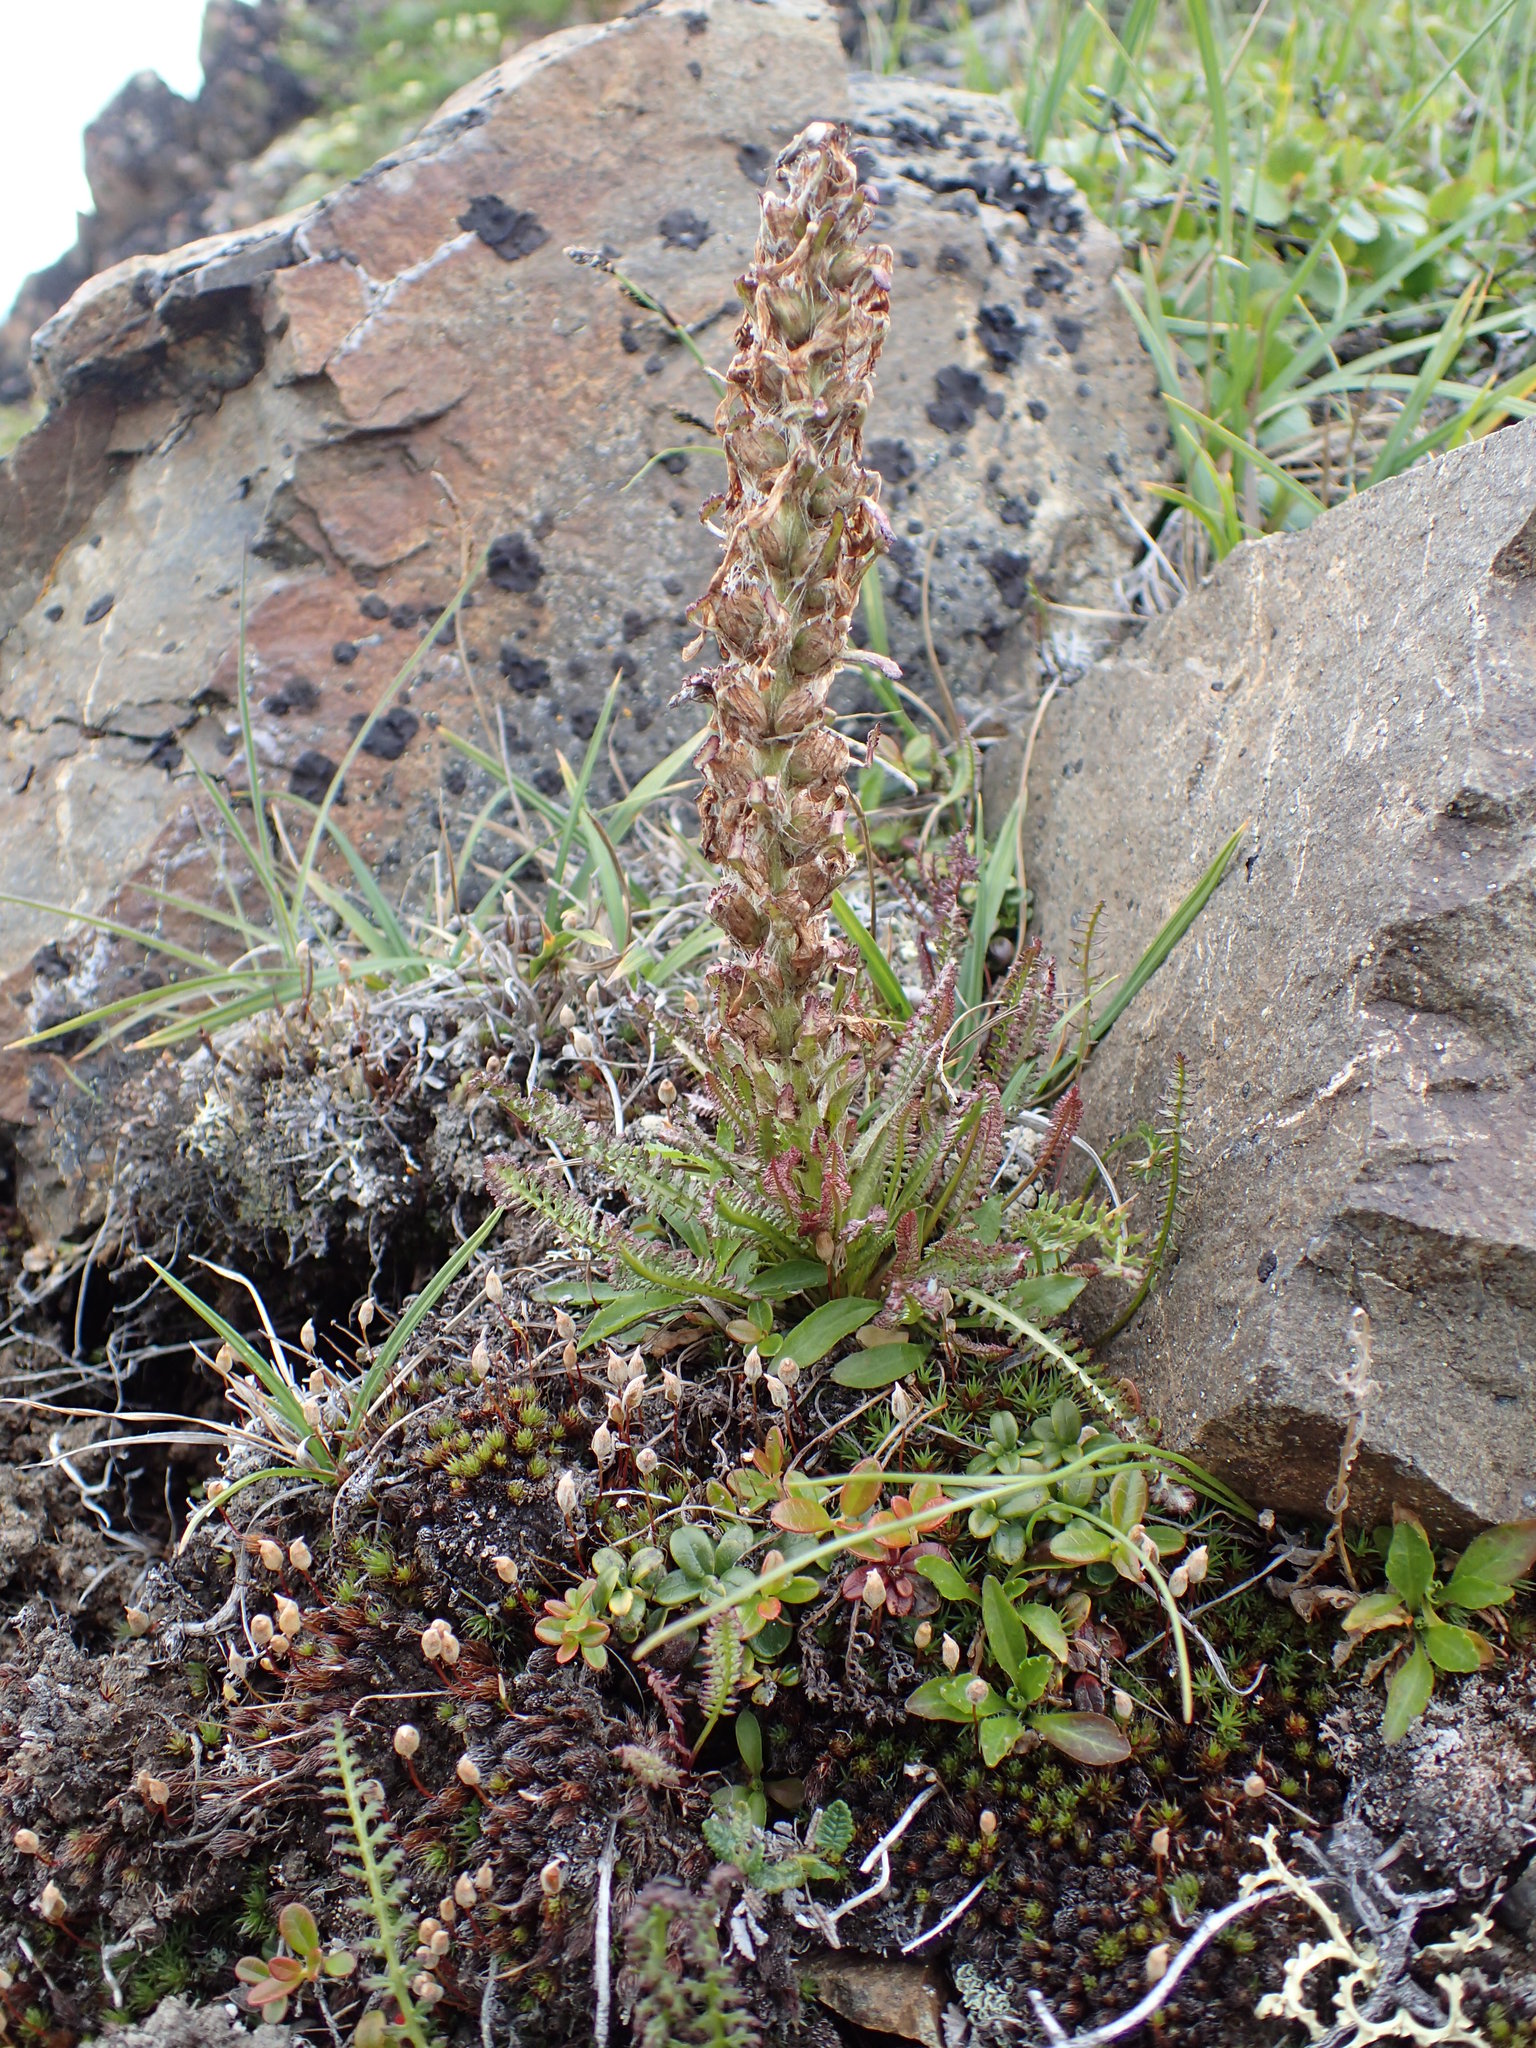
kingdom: Plantae
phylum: Tracheophyta
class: Magnoliopsida
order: Lamiales
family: Orobanchaceae
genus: Pedicularis
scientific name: Pedicularis lanata
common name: Woolly lousewort
